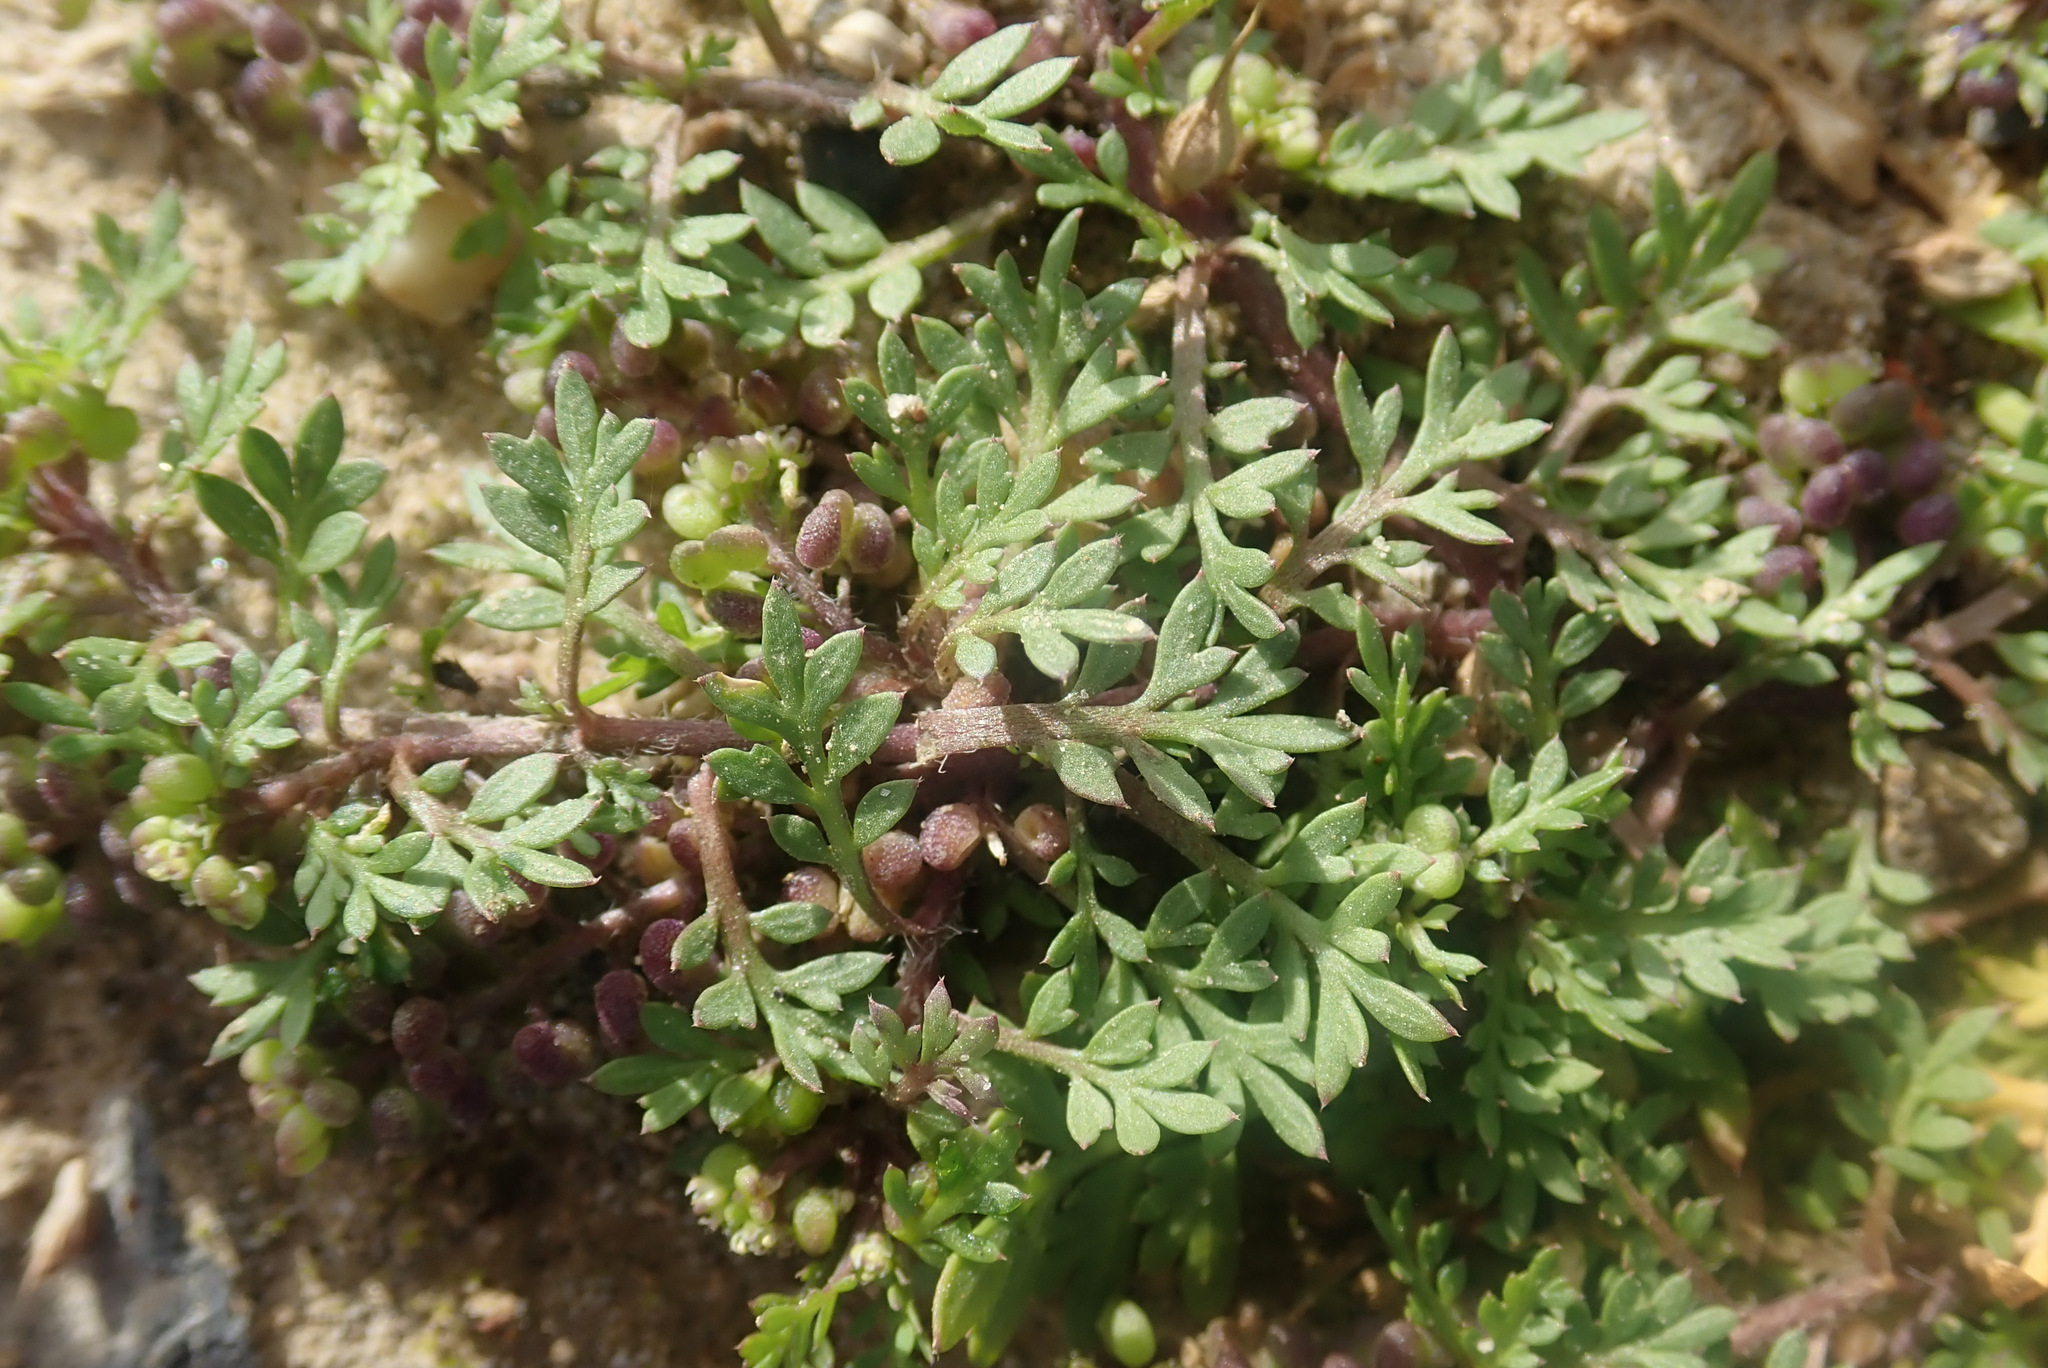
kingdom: Plantae
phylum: Tracheophyta
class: Magnoliopsida
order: Brassicales
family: Brassicaceae
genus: Lepidium
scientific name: Lepidium didymum
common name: Lesser swinecress
